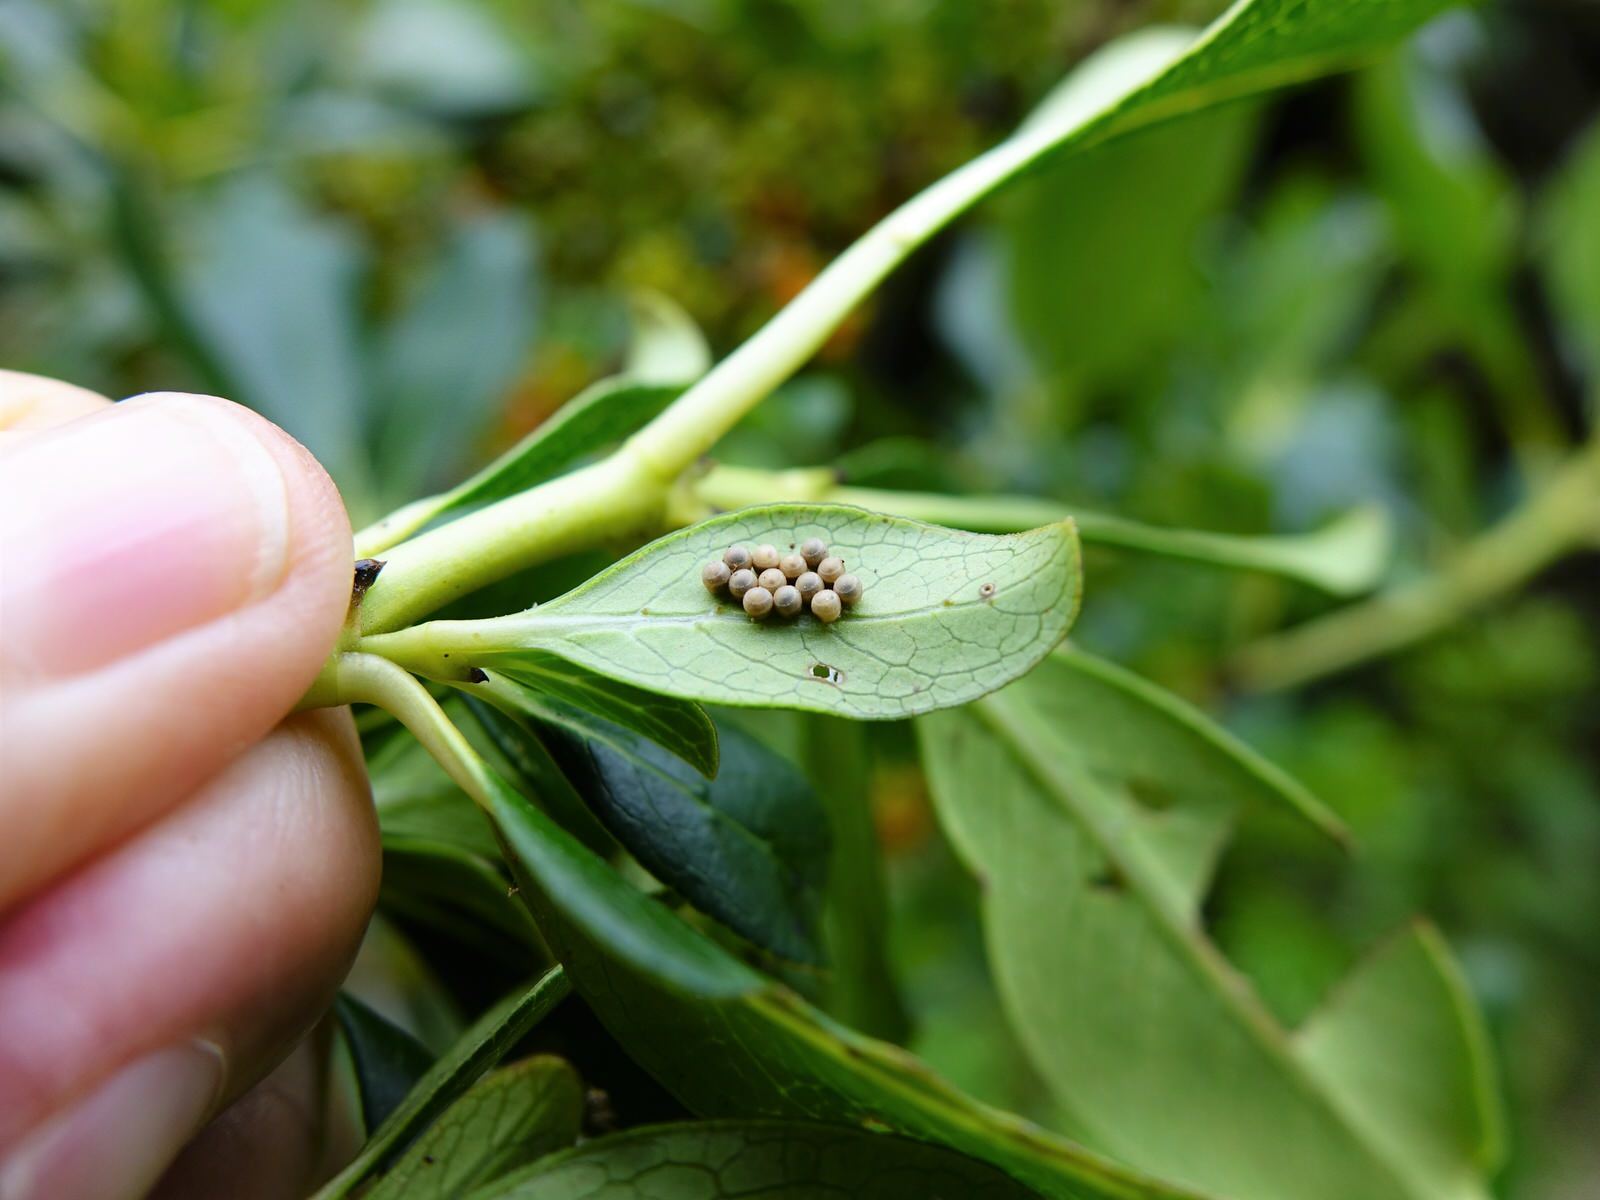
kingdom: Animalia
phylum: Arthropoda
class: Insecta
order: Hemiptera
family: Pentatomidae
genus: Glaucias
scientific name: Glaucias amyota
